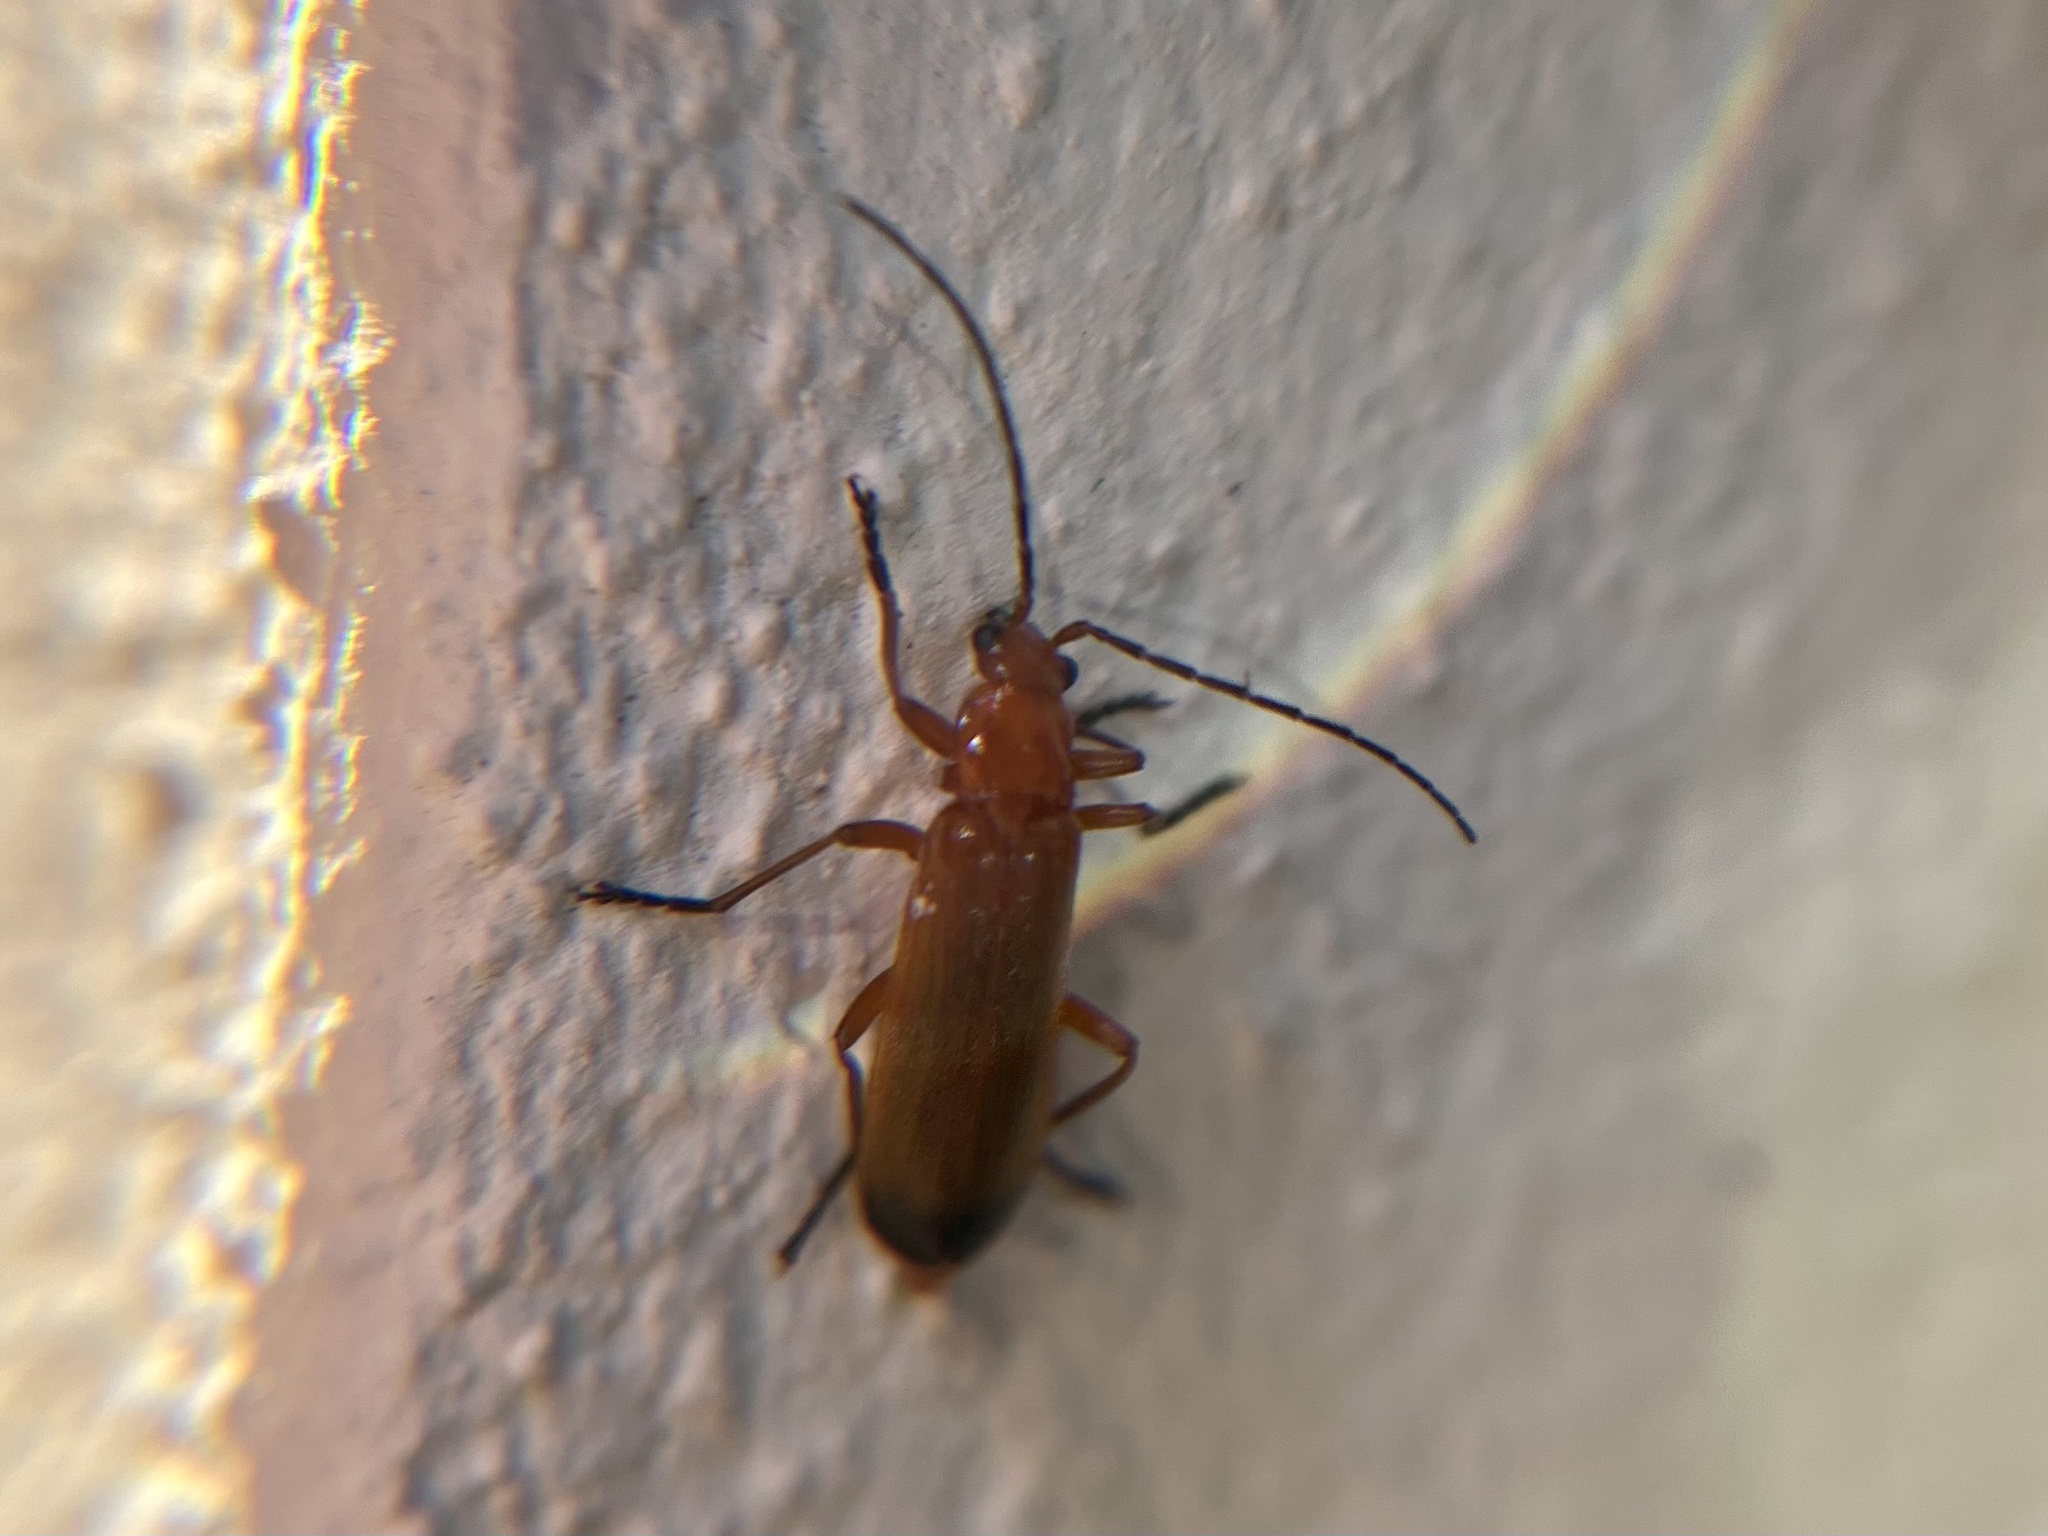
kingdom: Animalia
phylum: Arthropoda
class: Insecta
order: Coleoptera
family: Cantharidae
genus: Rhagonycha
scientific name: Rhagonycha fulva
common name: Common red soldier beetle
